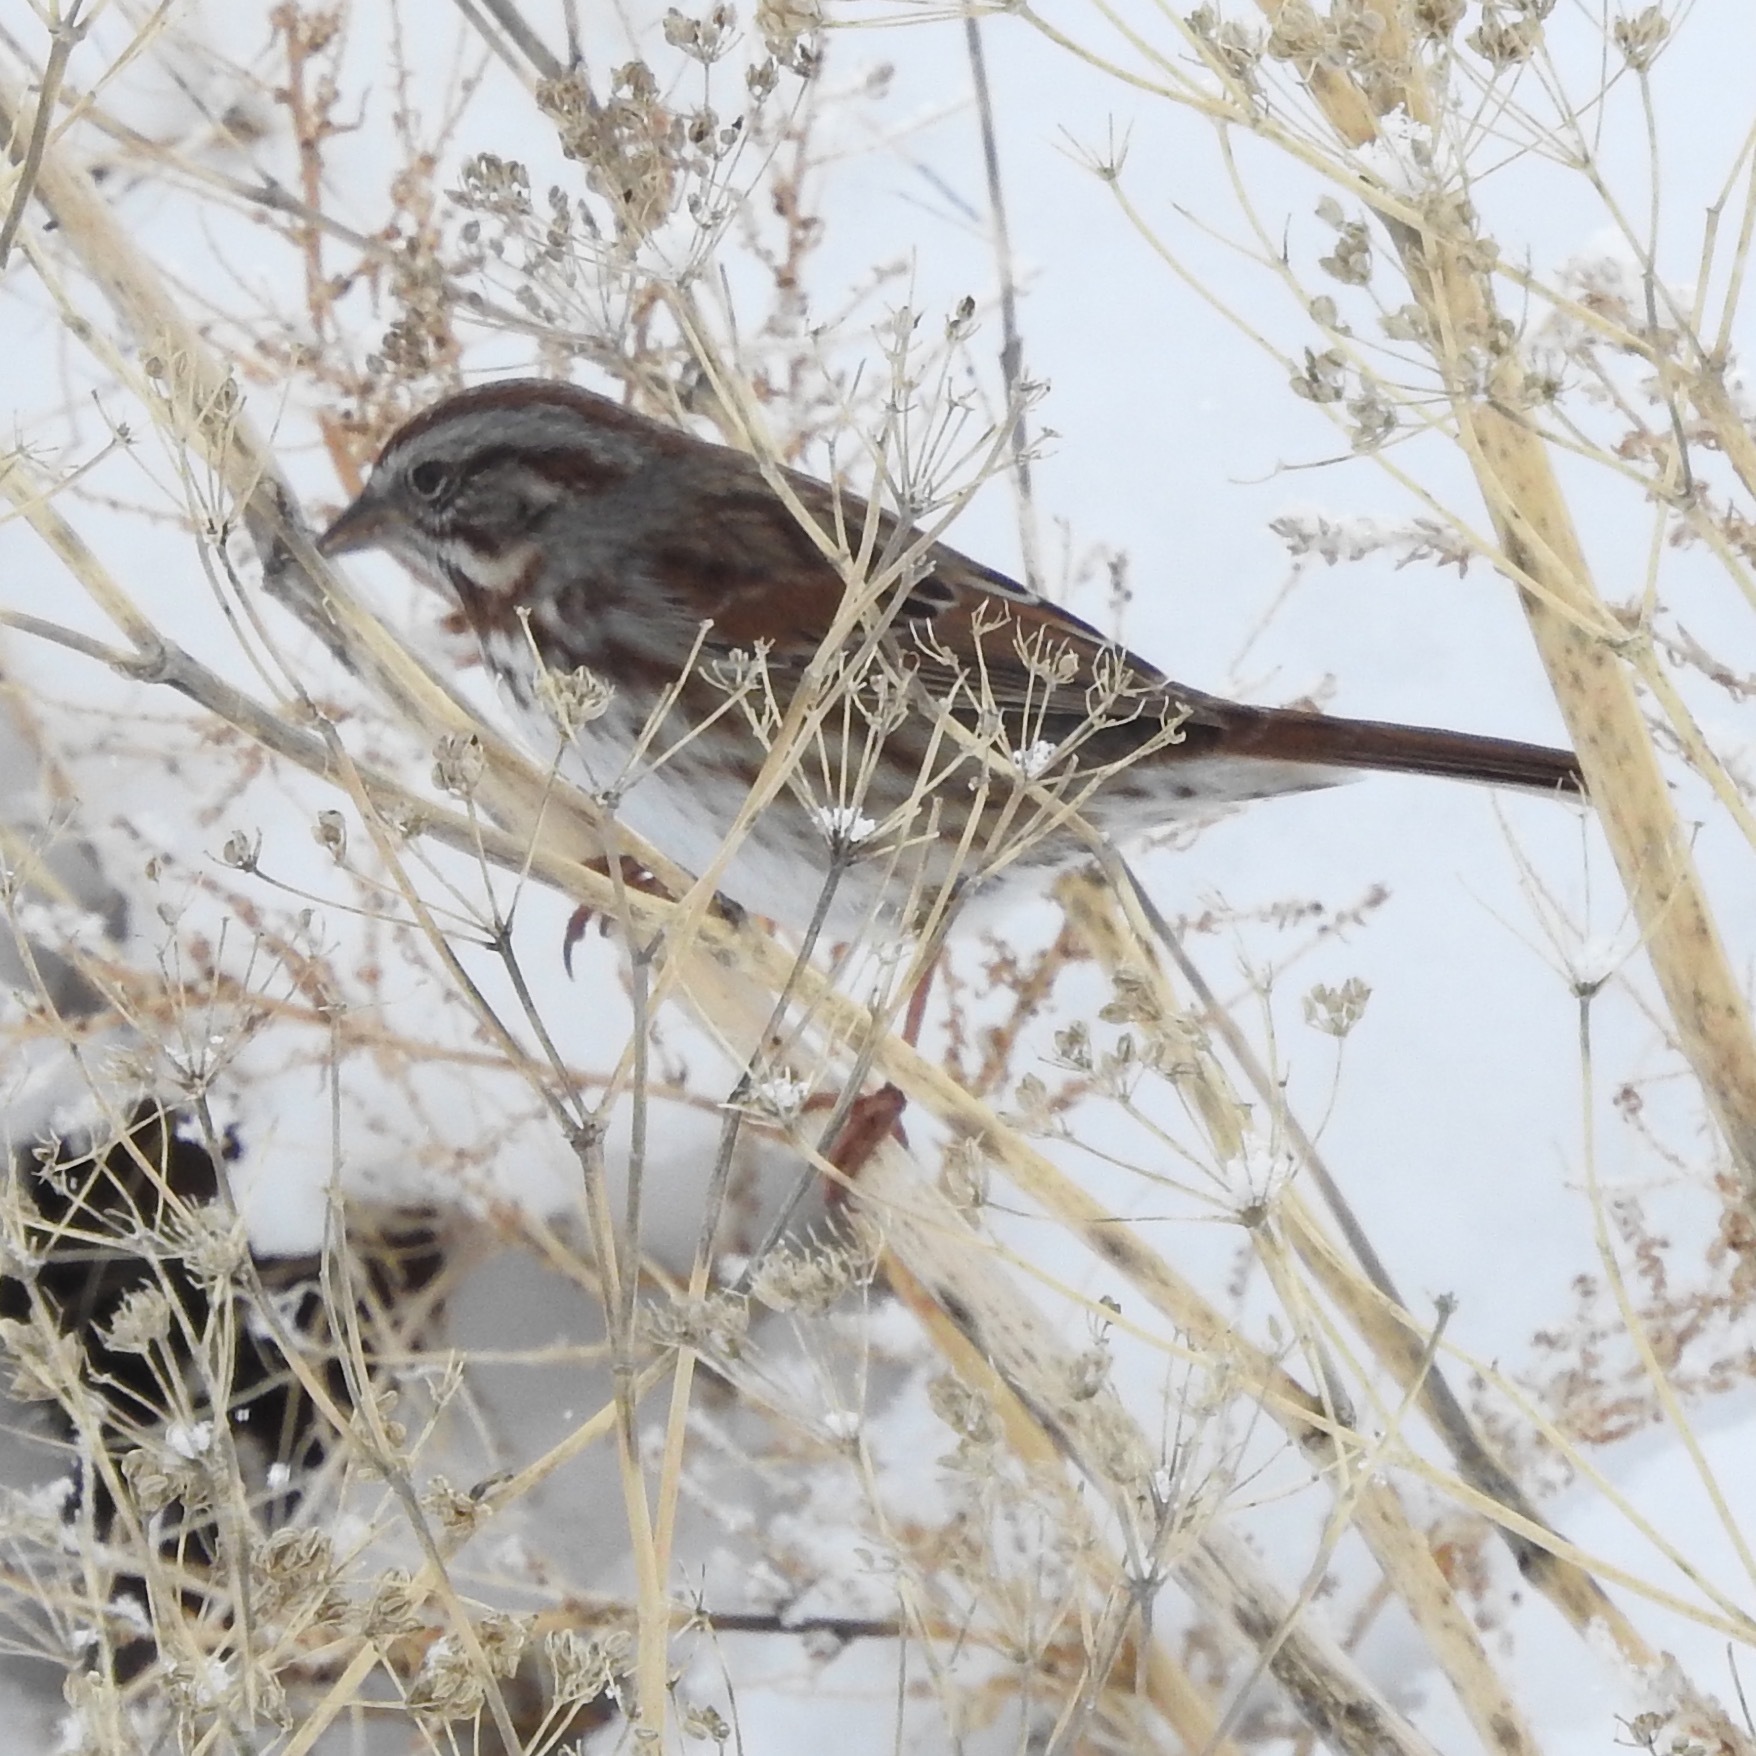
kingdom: Animalia
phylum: Chordata
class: Aves
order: Passeriformes
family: Passerellidae
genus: Melospiza
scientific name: Melospiza melodia
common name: Song sparrow
